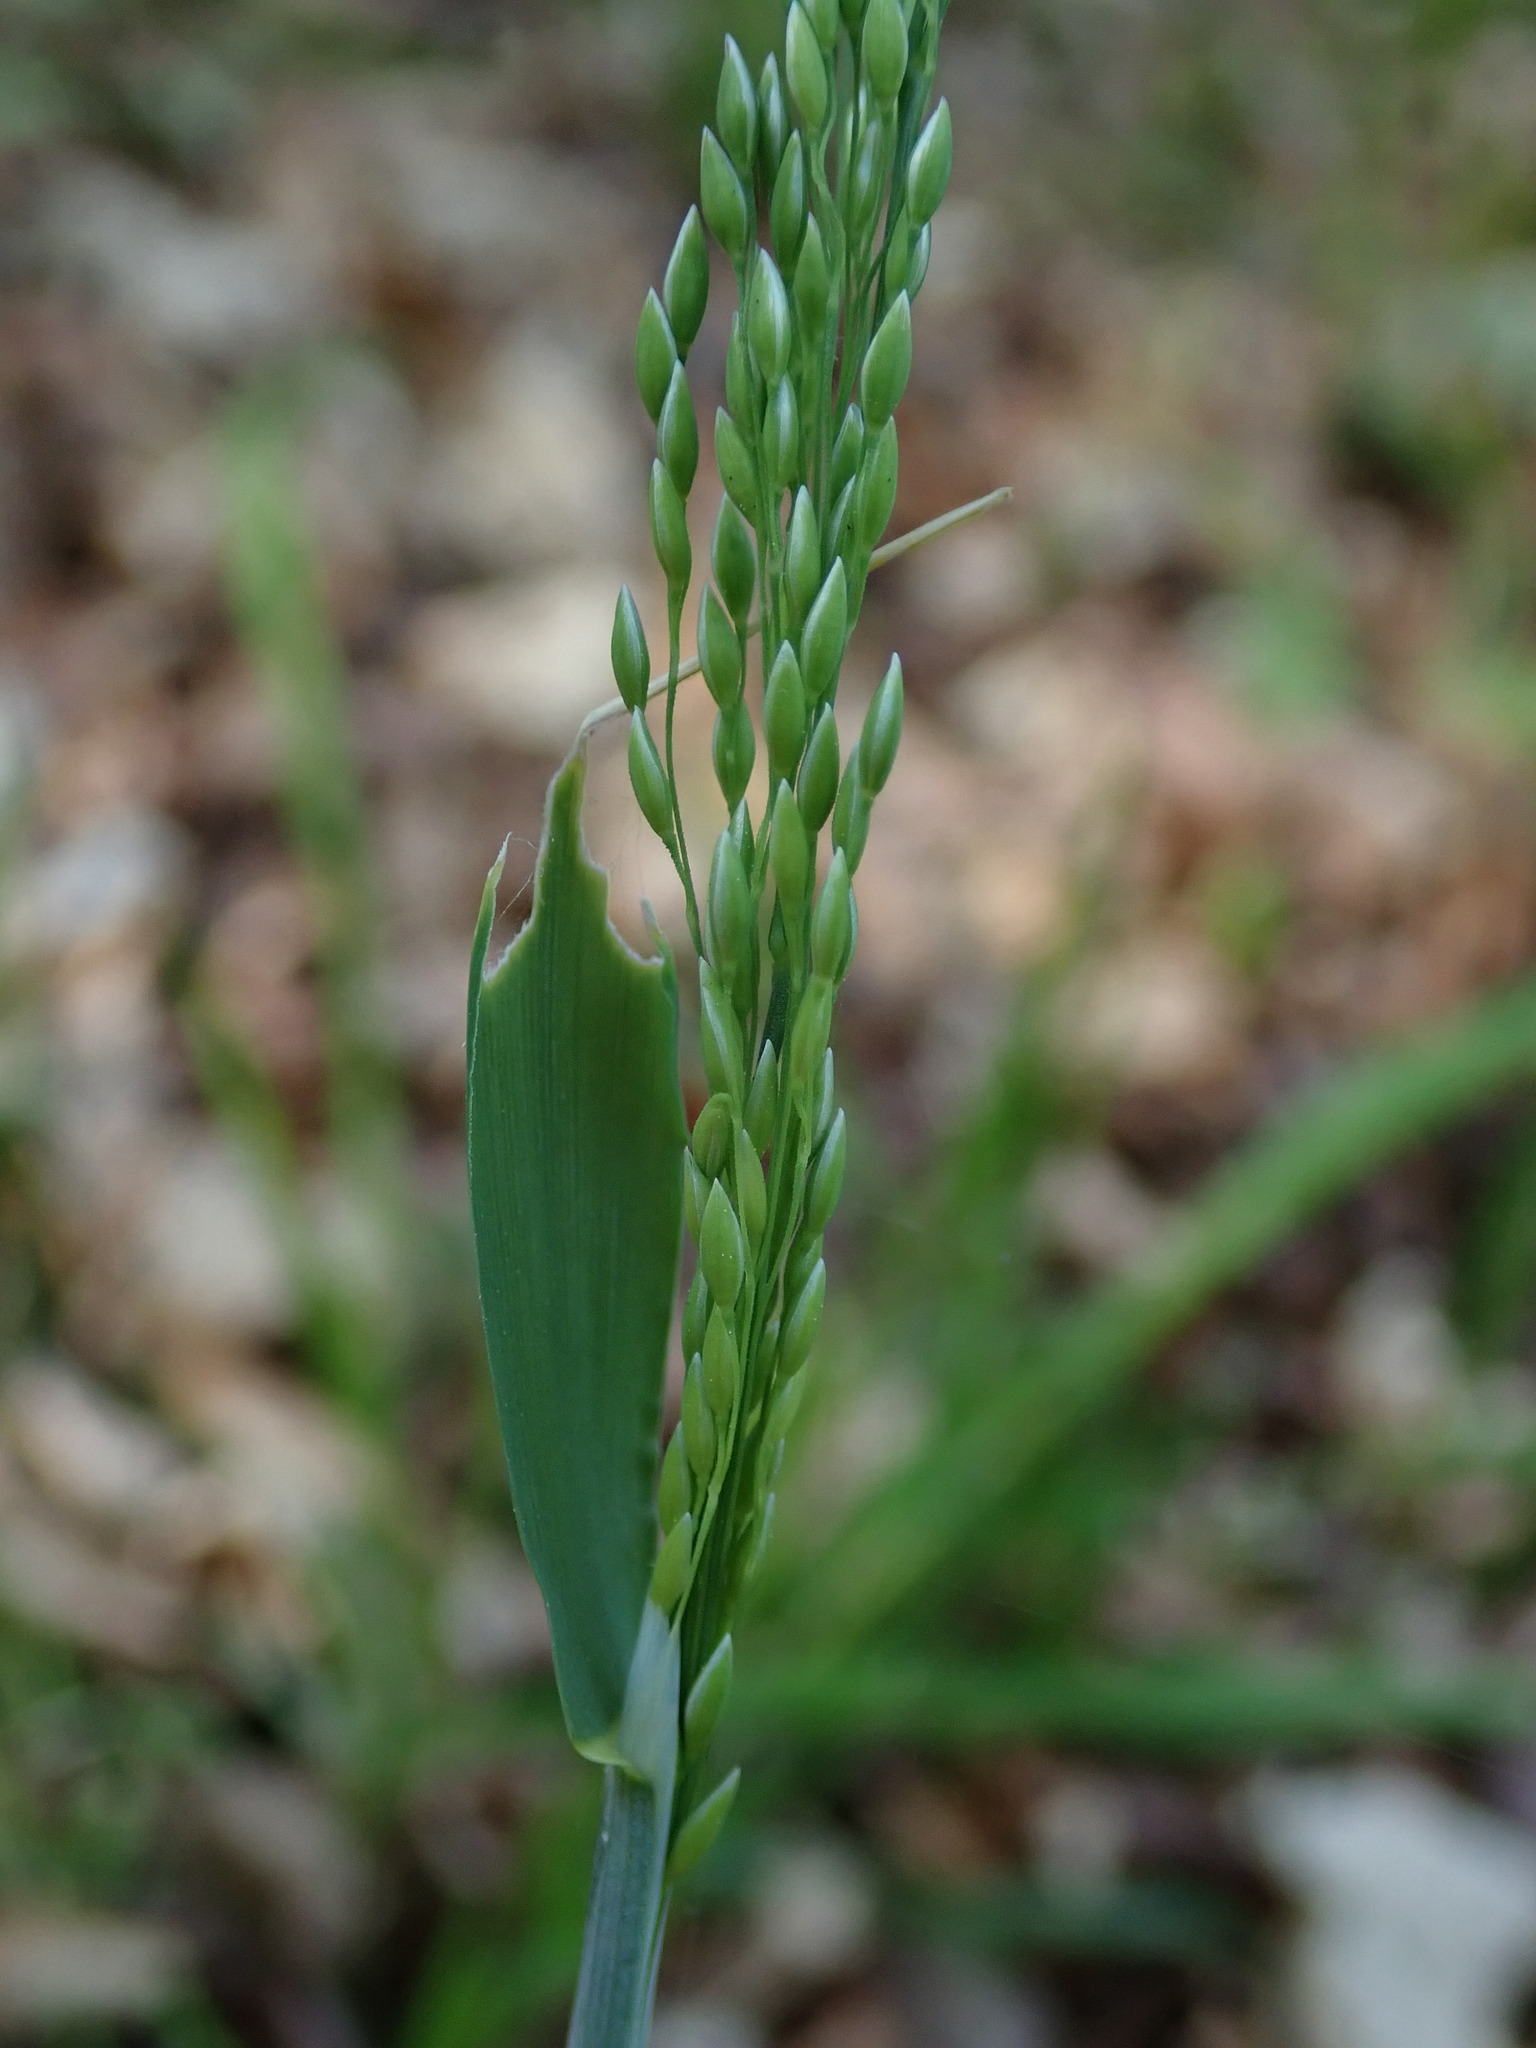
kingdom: Plantae
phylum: Tracheophyta
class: Liliopsida
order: Poales
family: Poaceae
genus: Milium
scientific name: Milium effusum
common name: Wood millet
